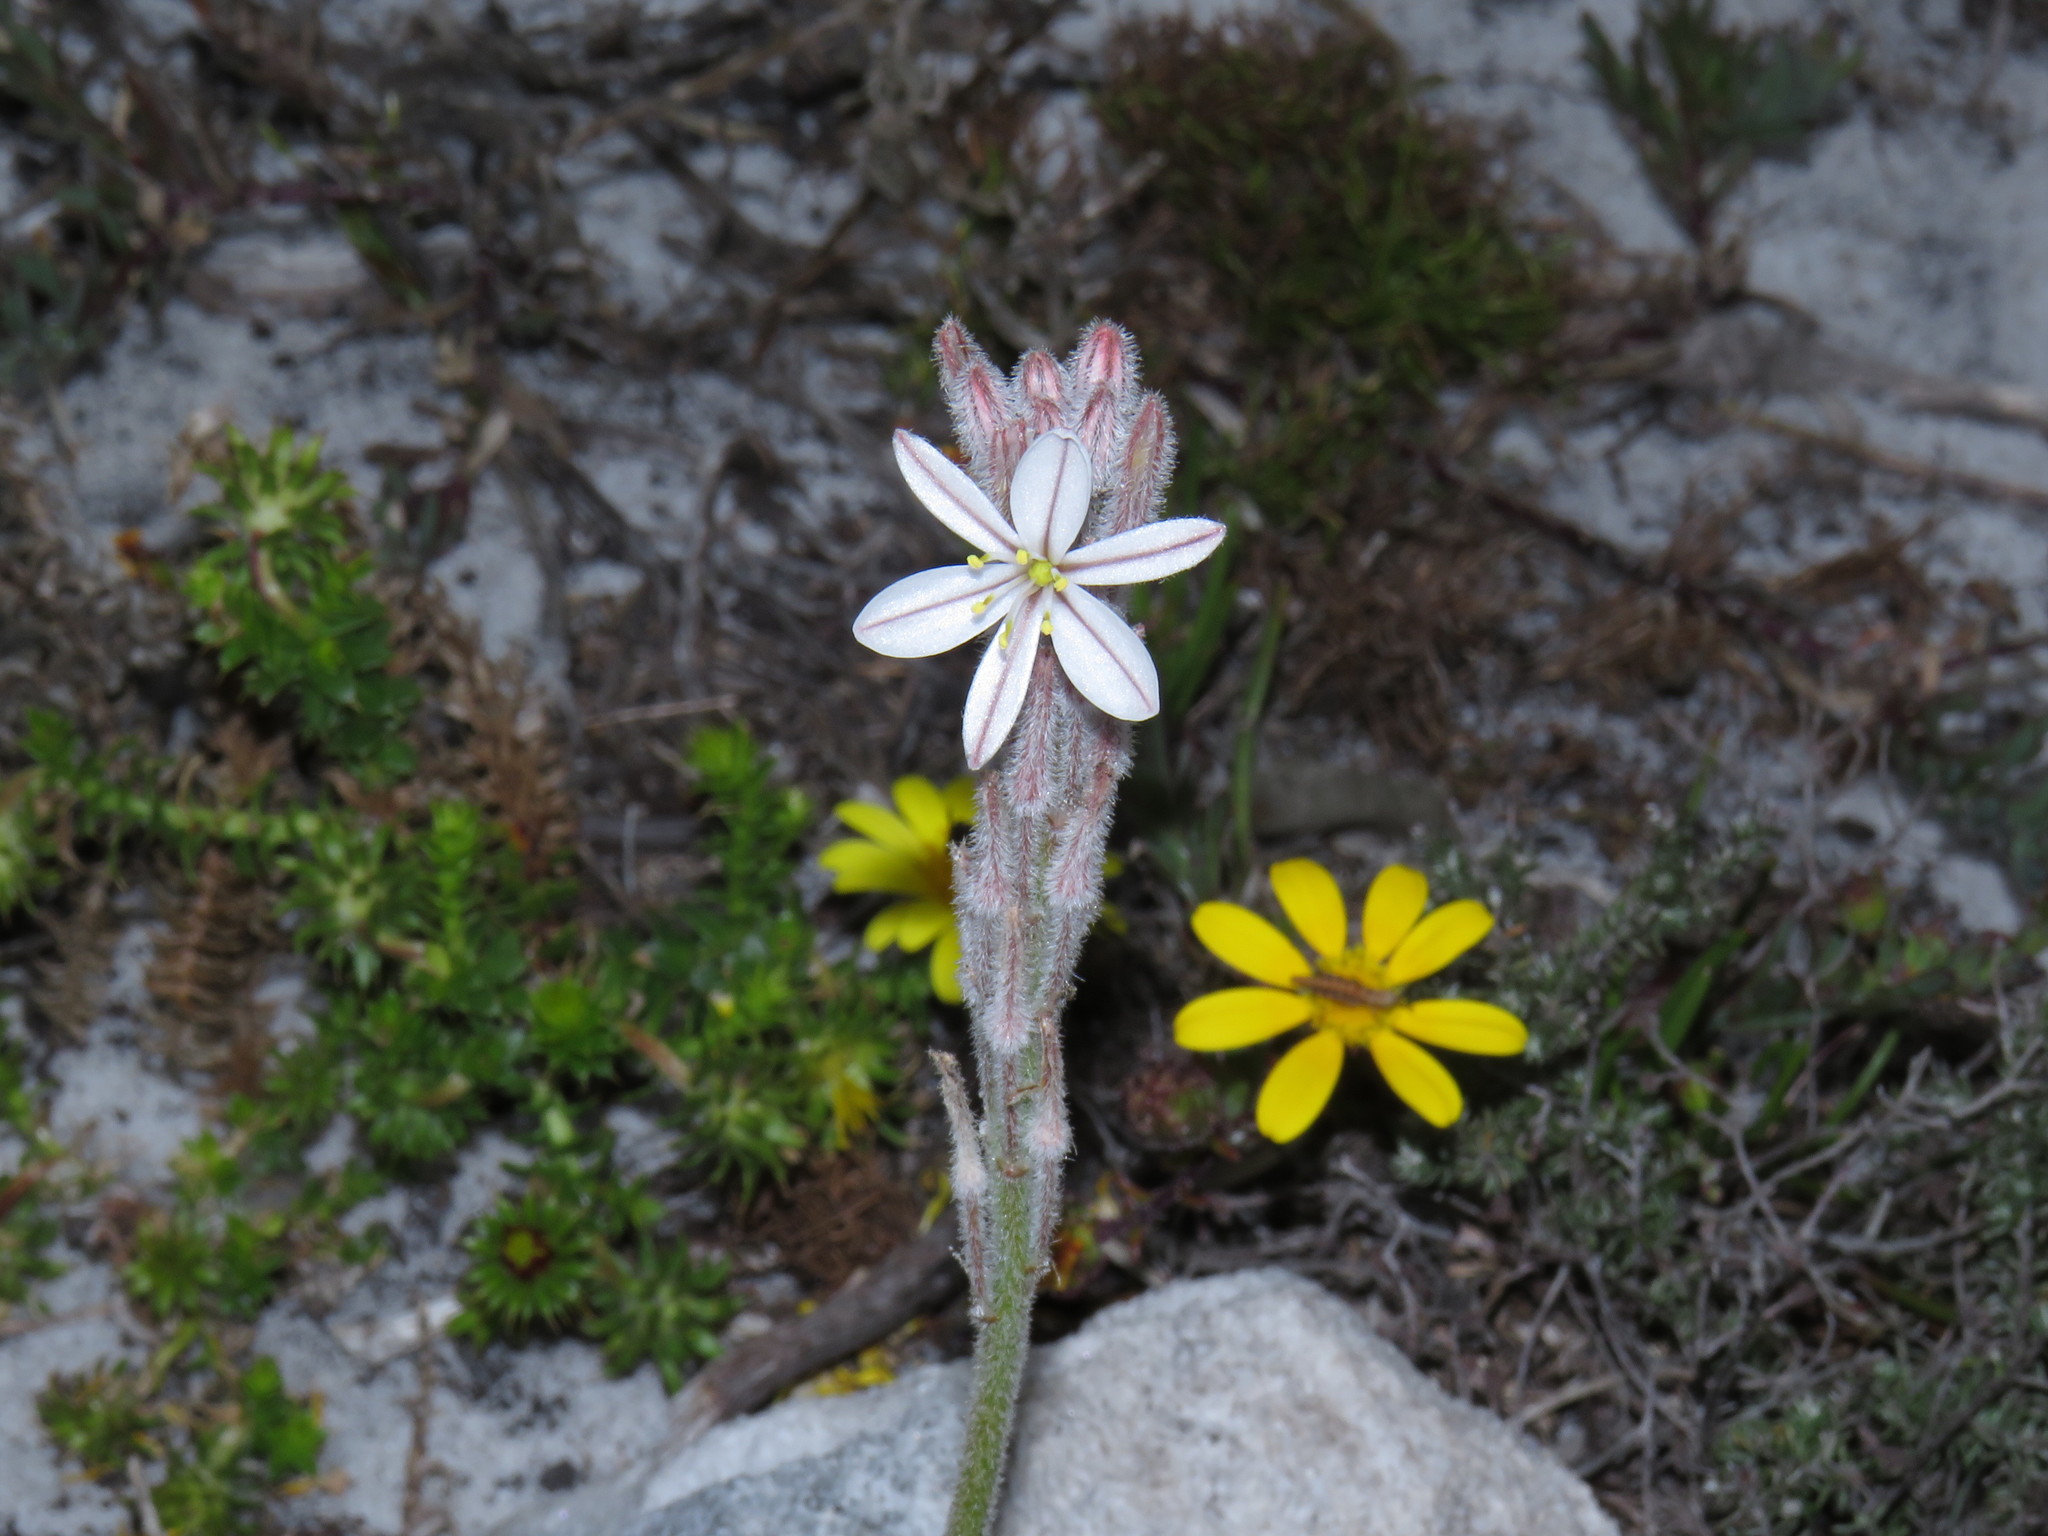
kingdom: Plantae
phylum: Tracheophyta
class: Liliopsida
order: Asparagales
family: Asphodelaceae
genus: Trachyandra
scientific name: Trachyandra hirsutiflora
